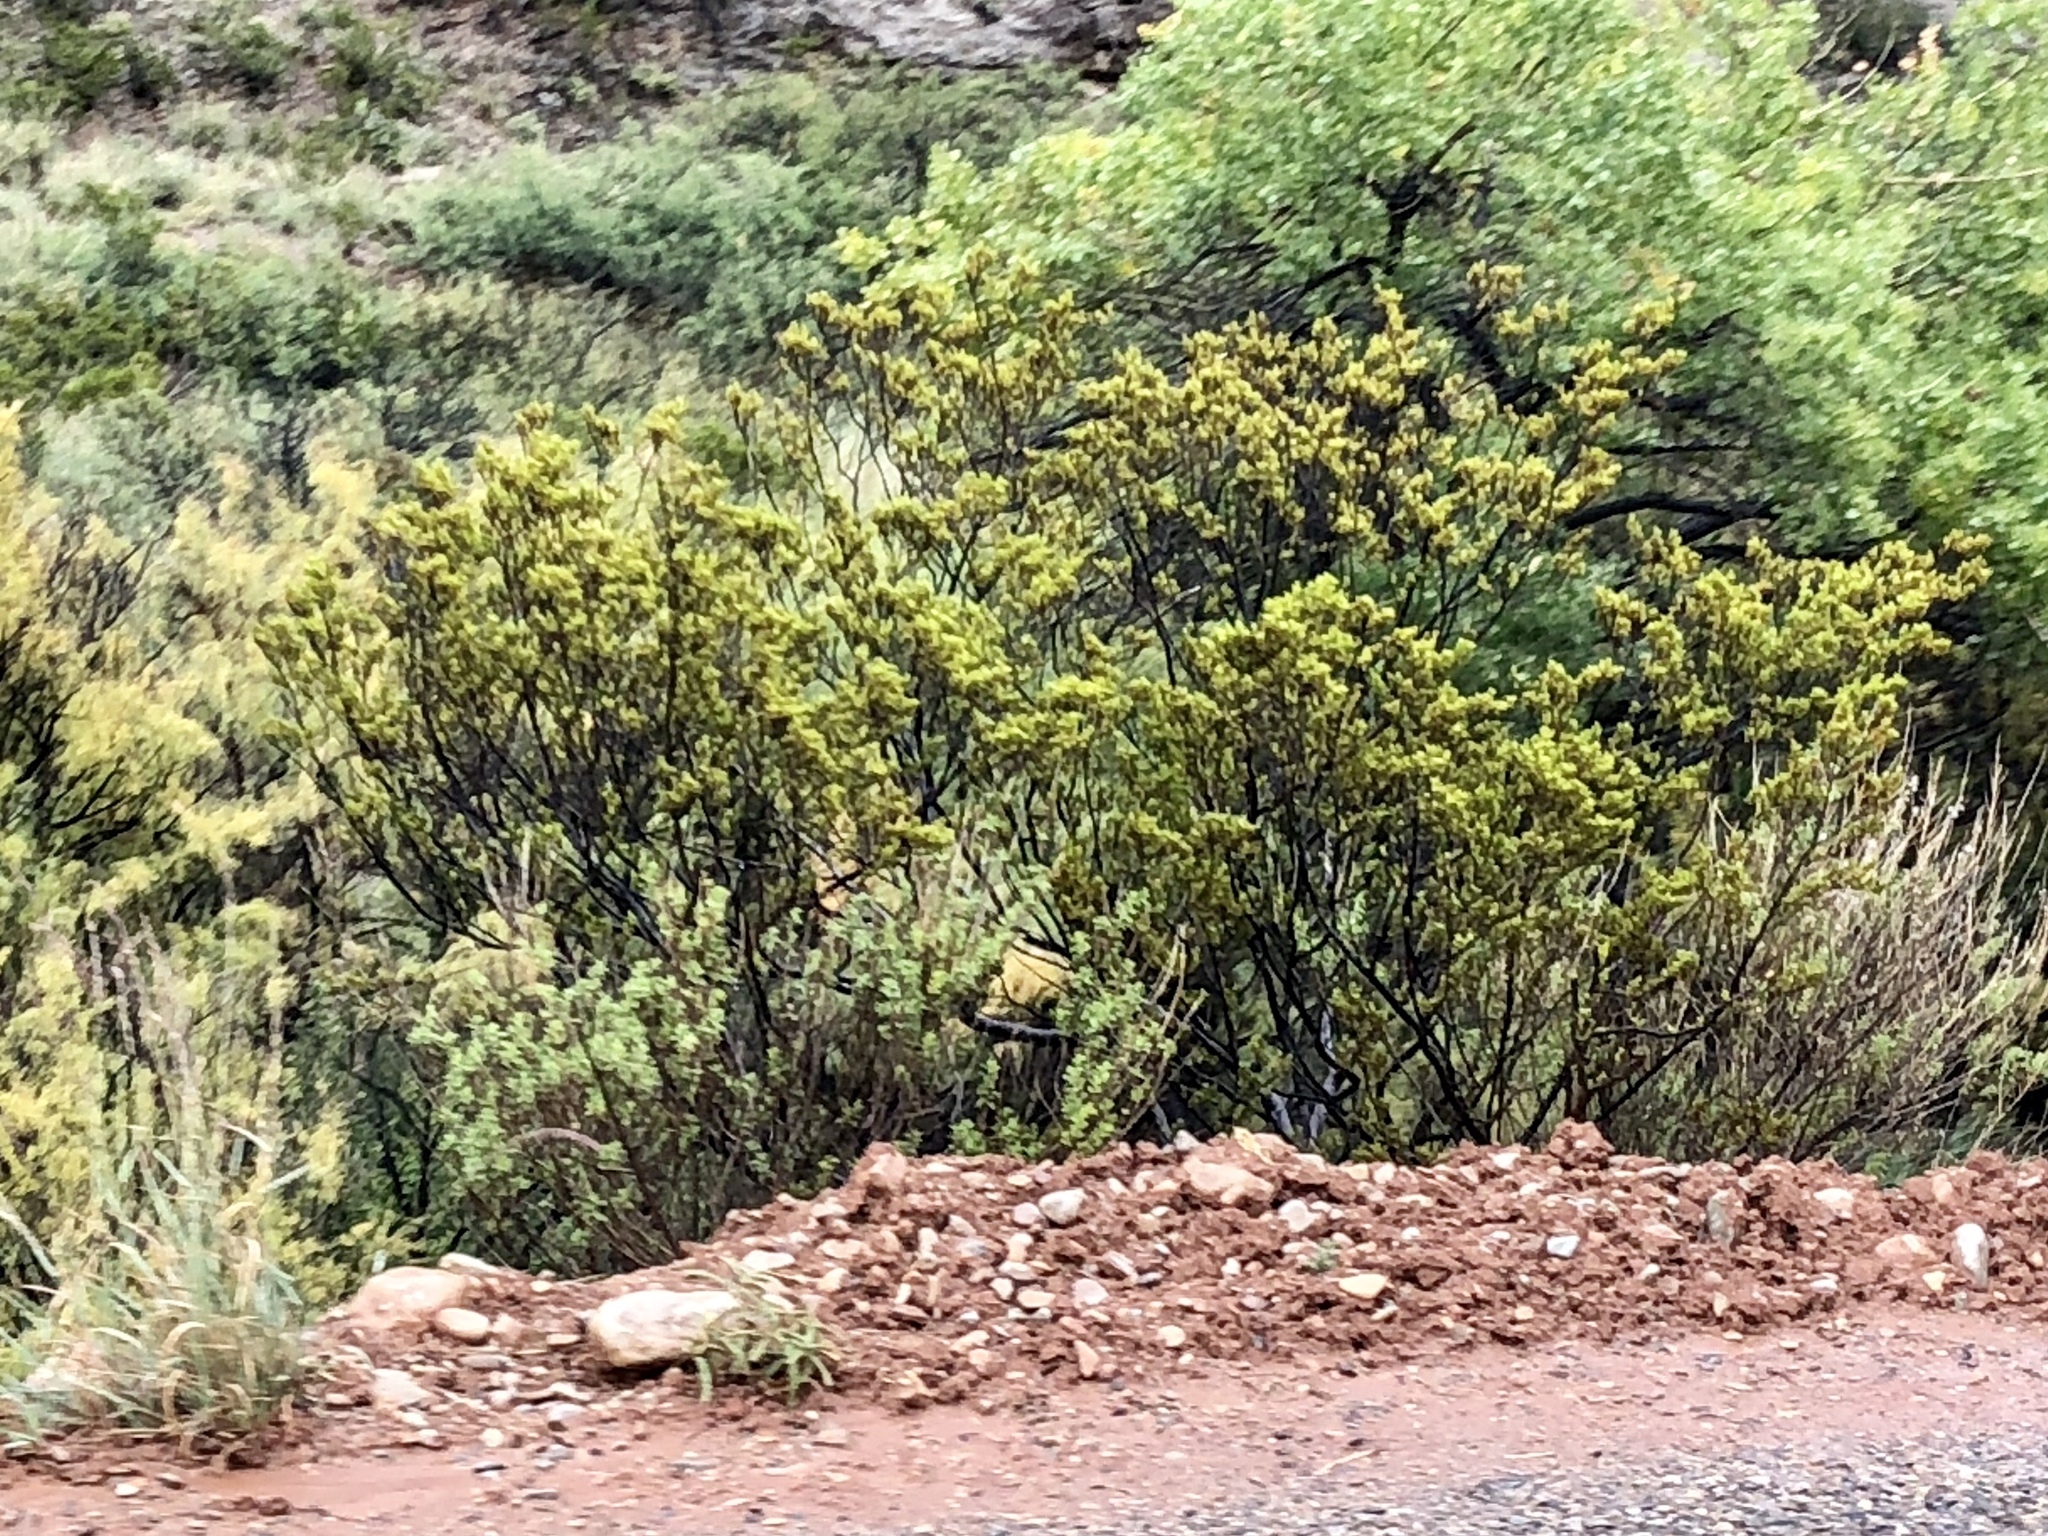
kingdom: Plantae
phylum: Tracheophyta
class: Magnoliopsida
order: Zygophyllales
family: Zygophyllaceae
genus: Larrea
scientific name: Larrea tridentata
